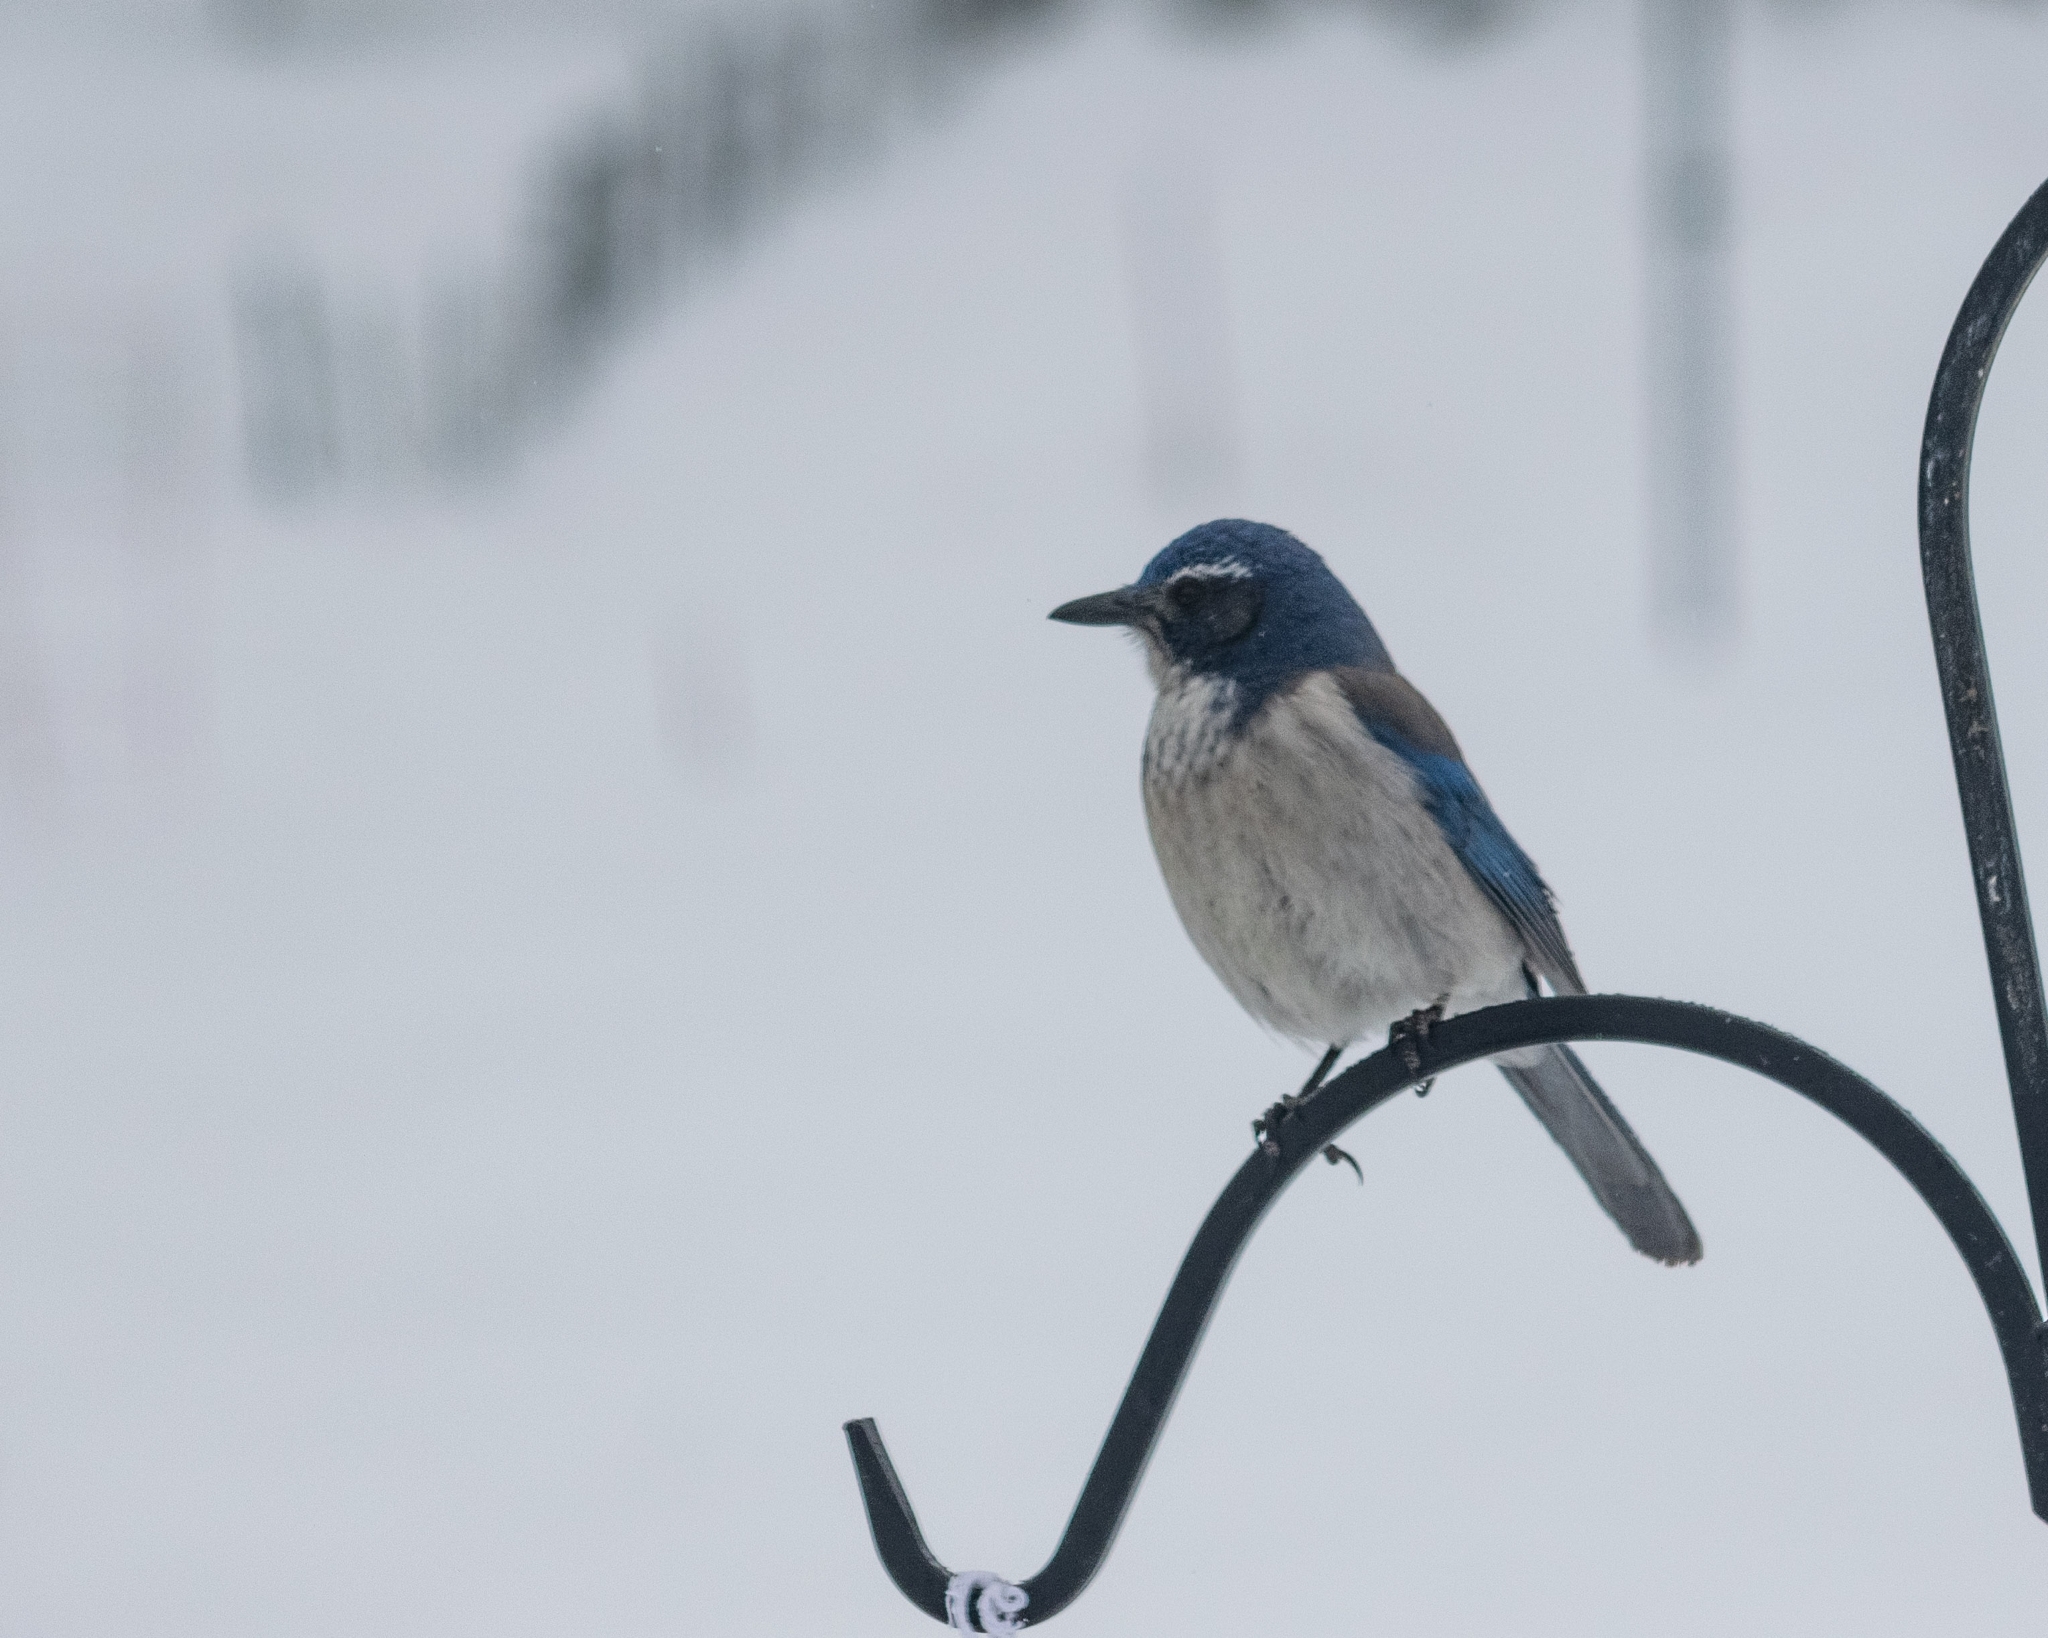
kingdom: Animalia
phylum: Chordata
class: Aves
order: Passeriformes
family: Corvidae
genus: Aphelocoma
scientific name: Aphelocoma californica
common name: California scrub-jay
